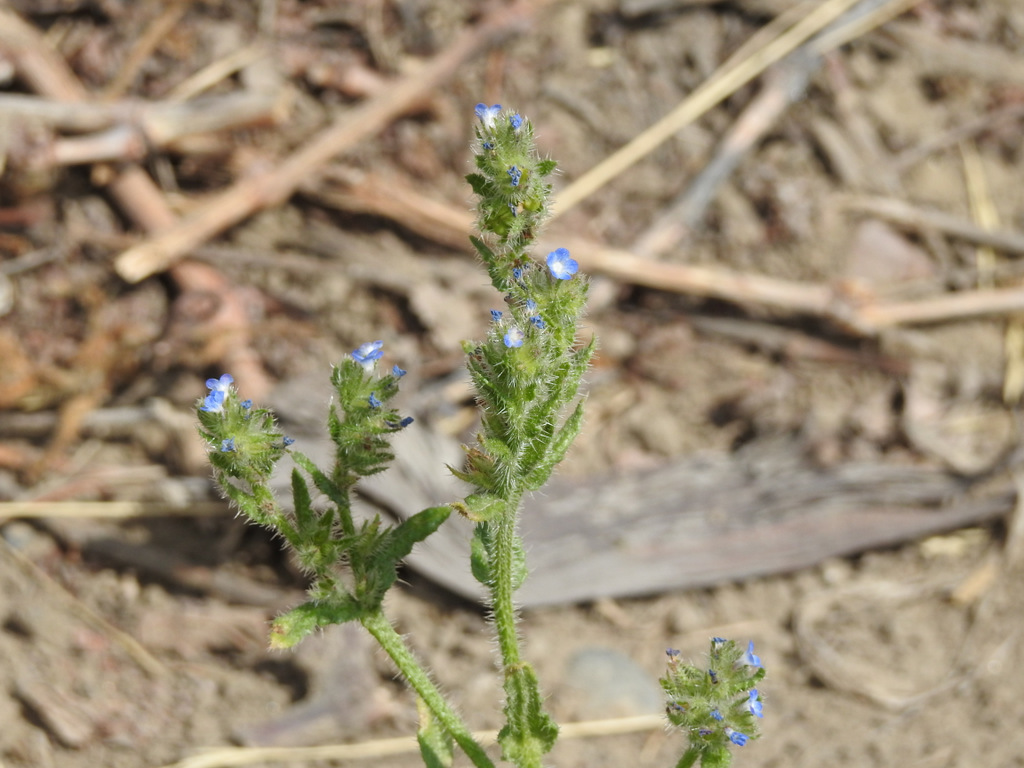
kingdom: Plantae
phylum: Tracheophyta
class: Magnoliopsida
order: Boraginales
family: Boraginaceae
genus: Lycopsis
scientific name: Lycopsis arvensis
